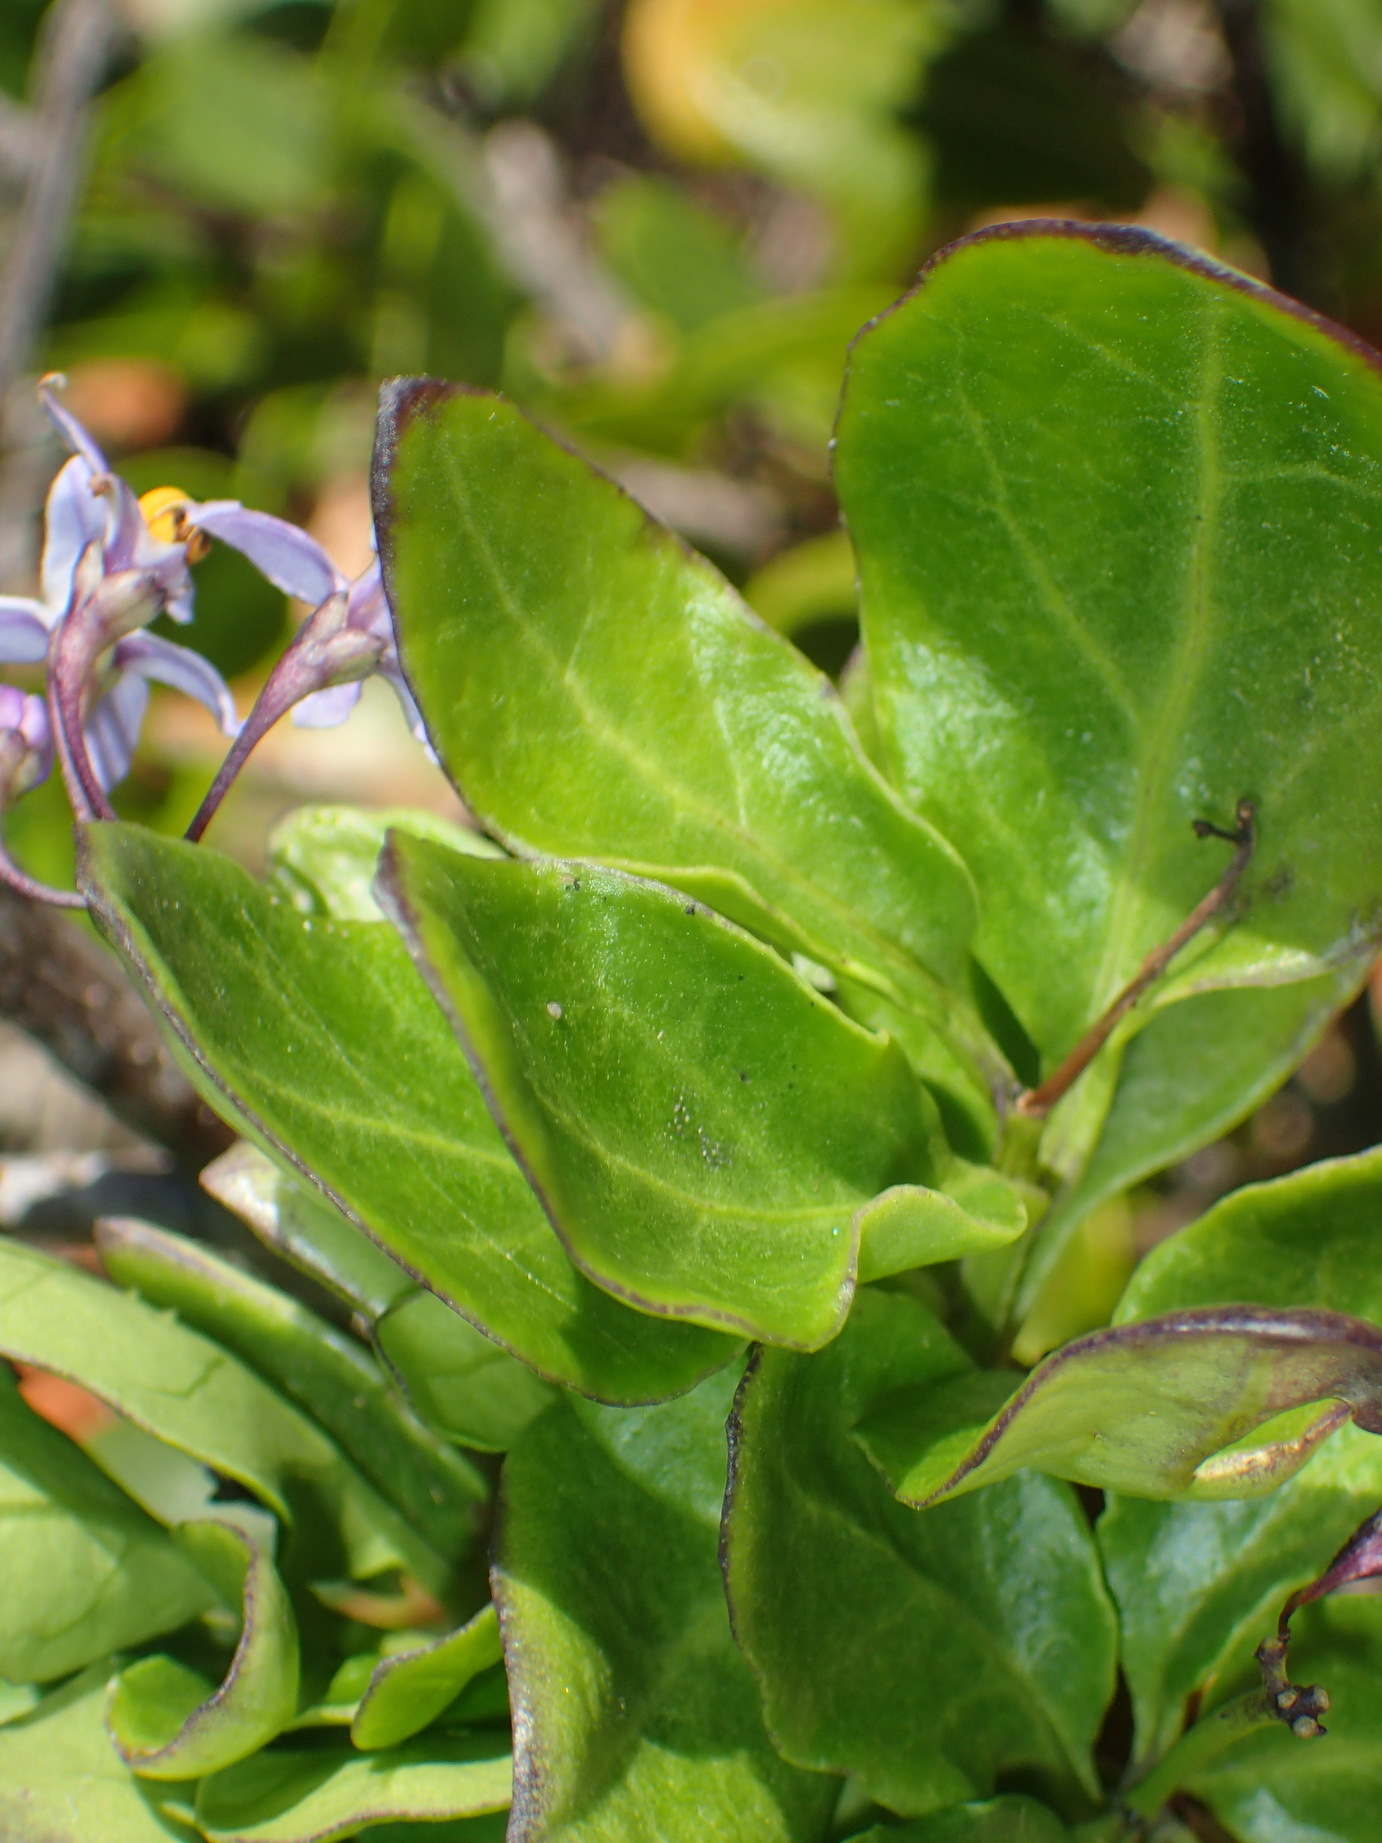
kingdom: Plantae
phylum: Tracheophyta
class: Magnoliopsida
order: Solanales
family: Solanaceae
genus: Solanum
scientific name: Solanum africanum
